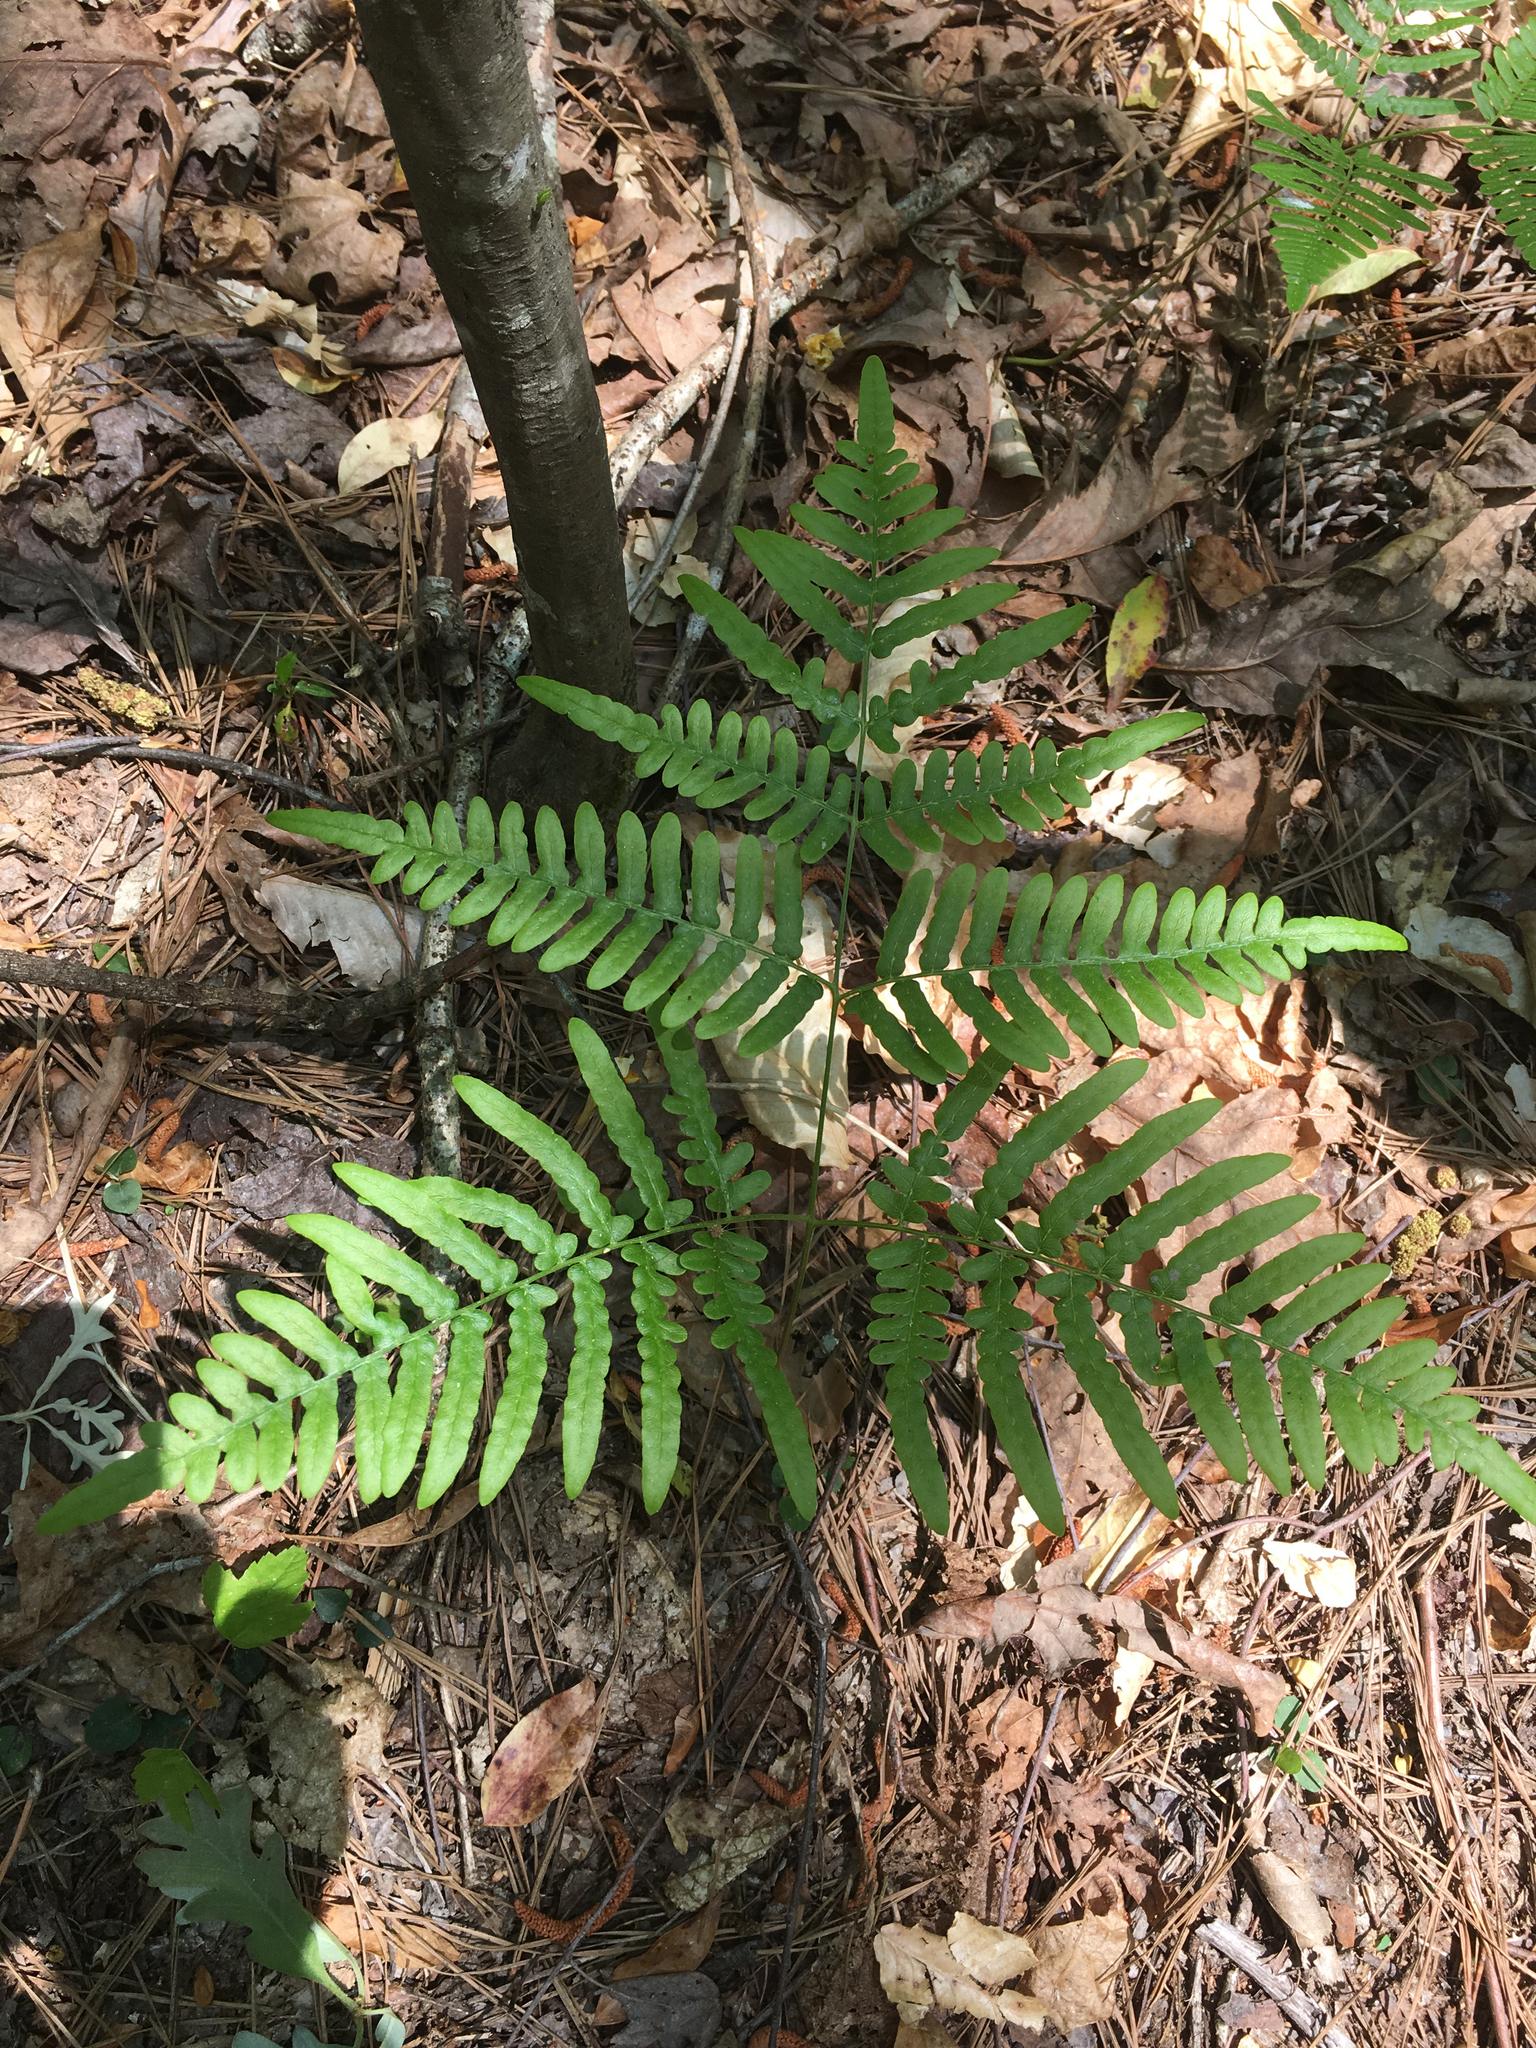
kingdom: Plantae
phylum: Tracheophyta
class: Polypodiopsida
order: Polypodiales
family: Dennstaedtiaceae
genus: Pteridium
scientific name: Pteridium
